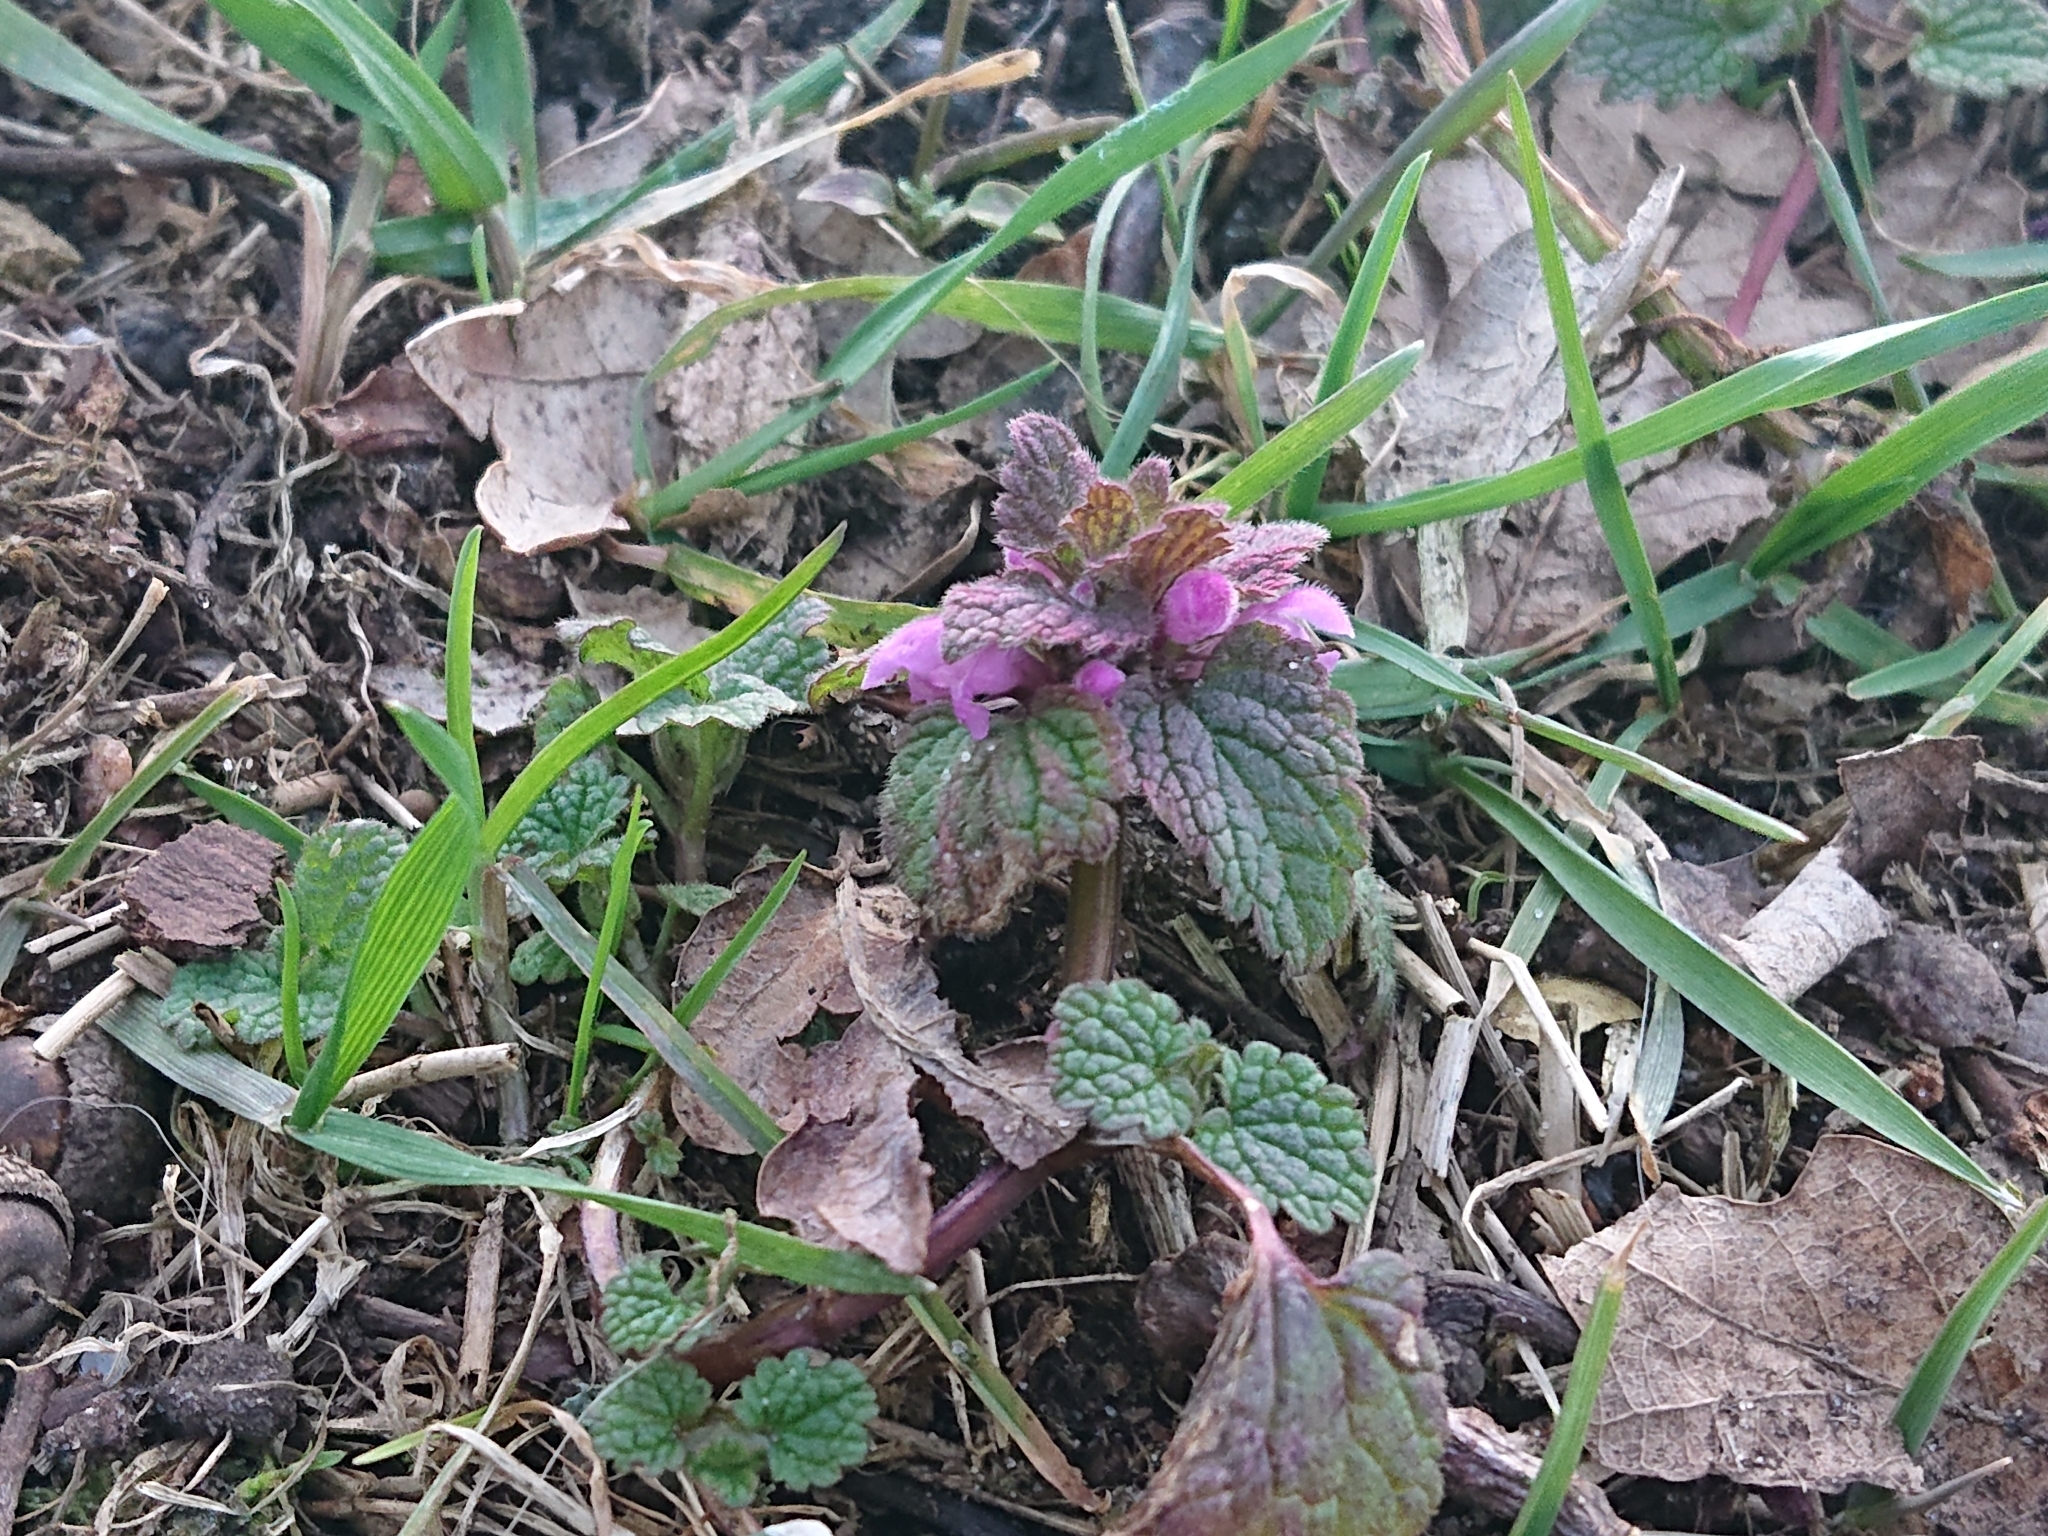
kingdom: Plantae
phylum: Tracheophyta
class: Magnoliopsida
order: Lamiales
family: Lamiaceae
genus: Lamium
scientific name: Lamium purpureum
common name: Red dead-nettle
